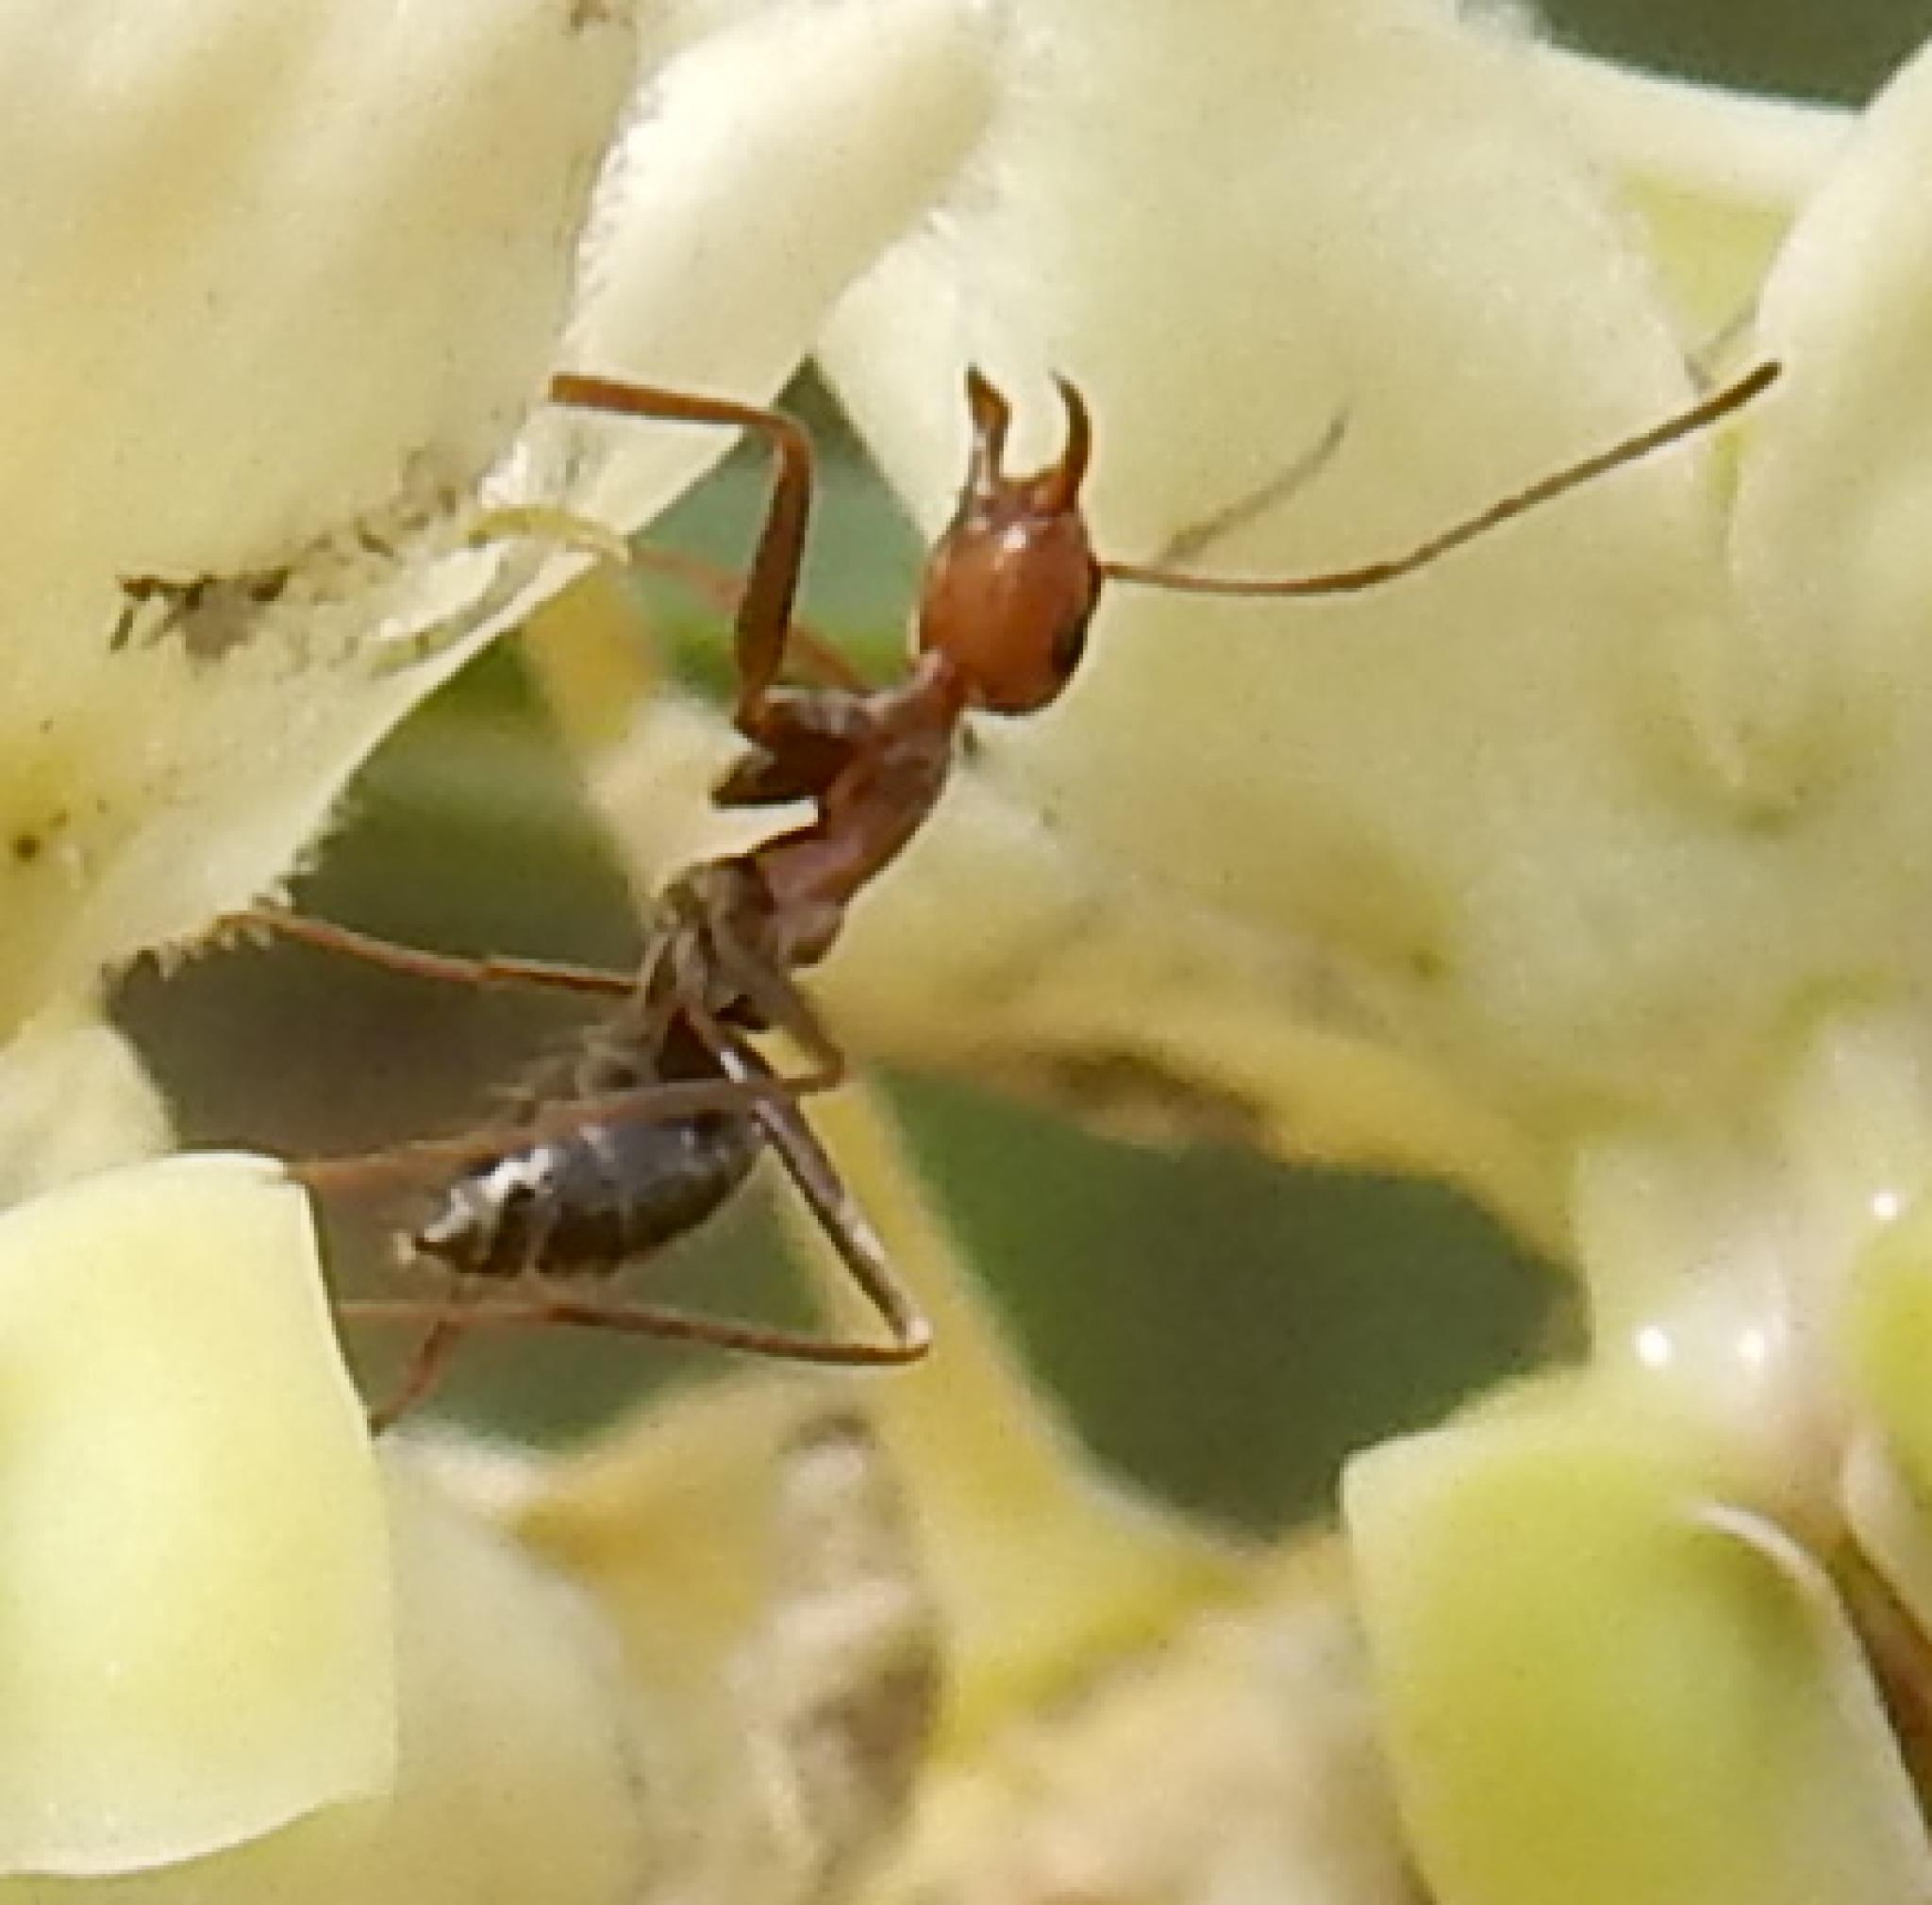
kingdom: Animalia
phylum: Arthropoda
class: Insecta
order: Hymenoptera
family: Formicidae
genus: Camponotus
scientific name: Camponotus vestitus
